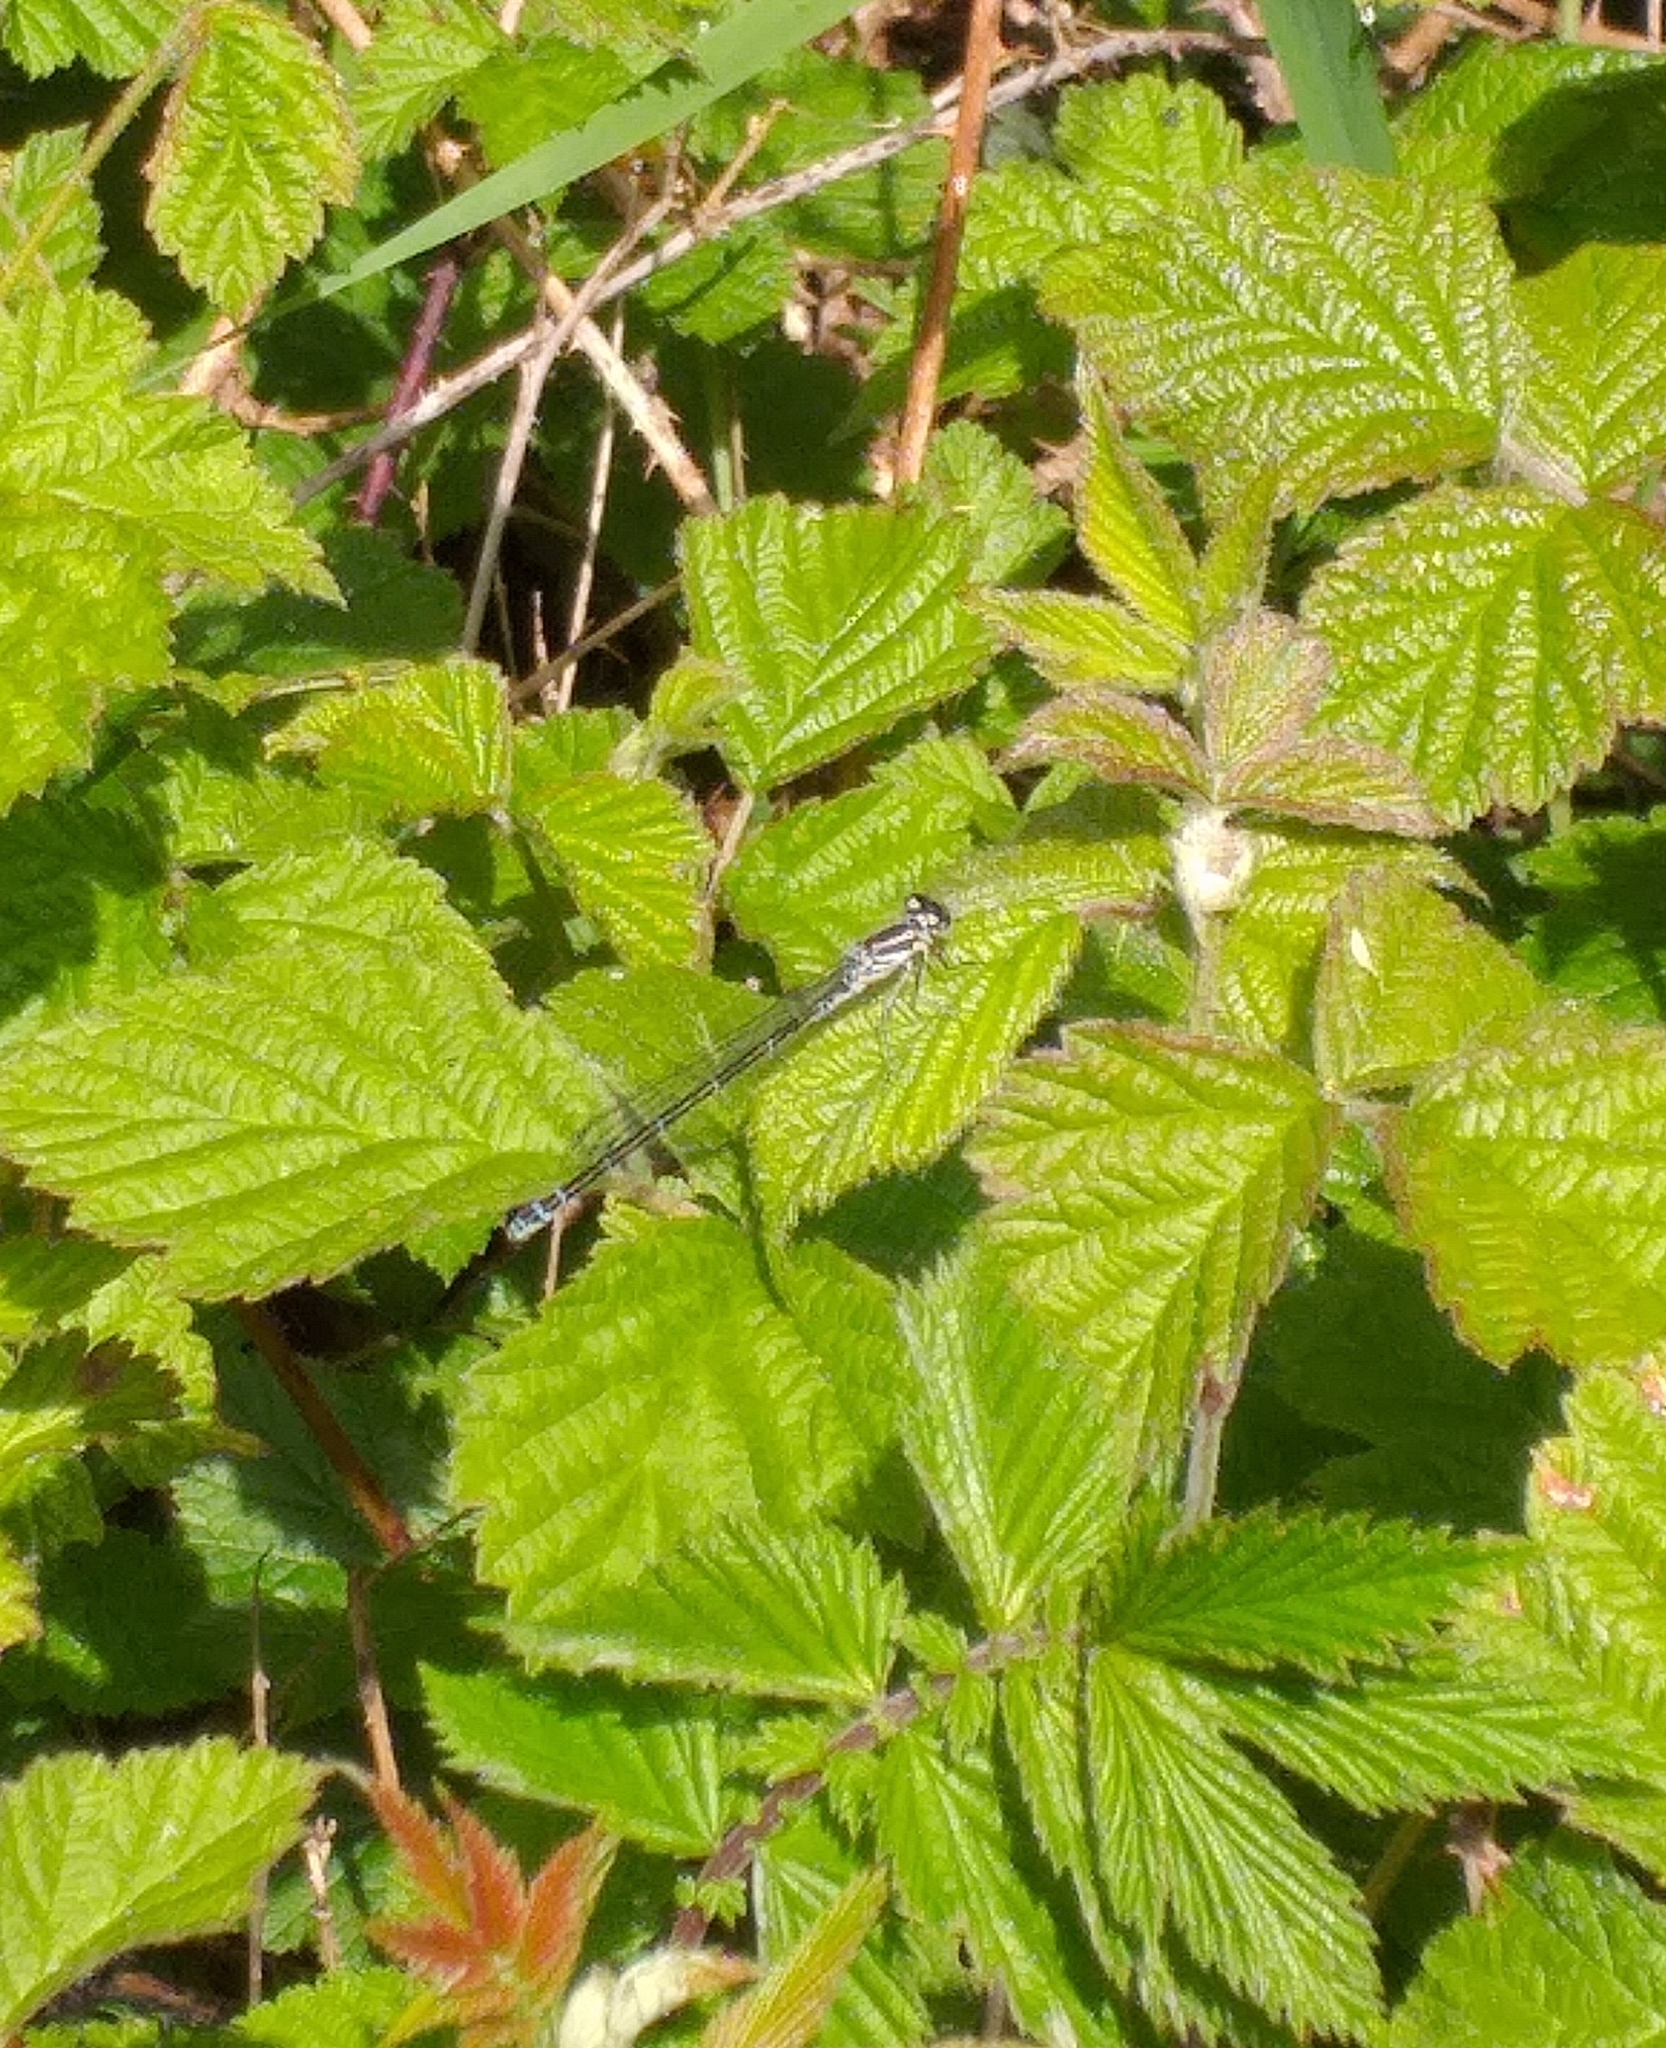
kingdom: Animalia
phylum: Arthropoda
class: Insecta
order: Odonata
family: Coenagrionidae
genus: Coenagrion
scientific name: Coenagrion puella
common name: Azure damselfly
